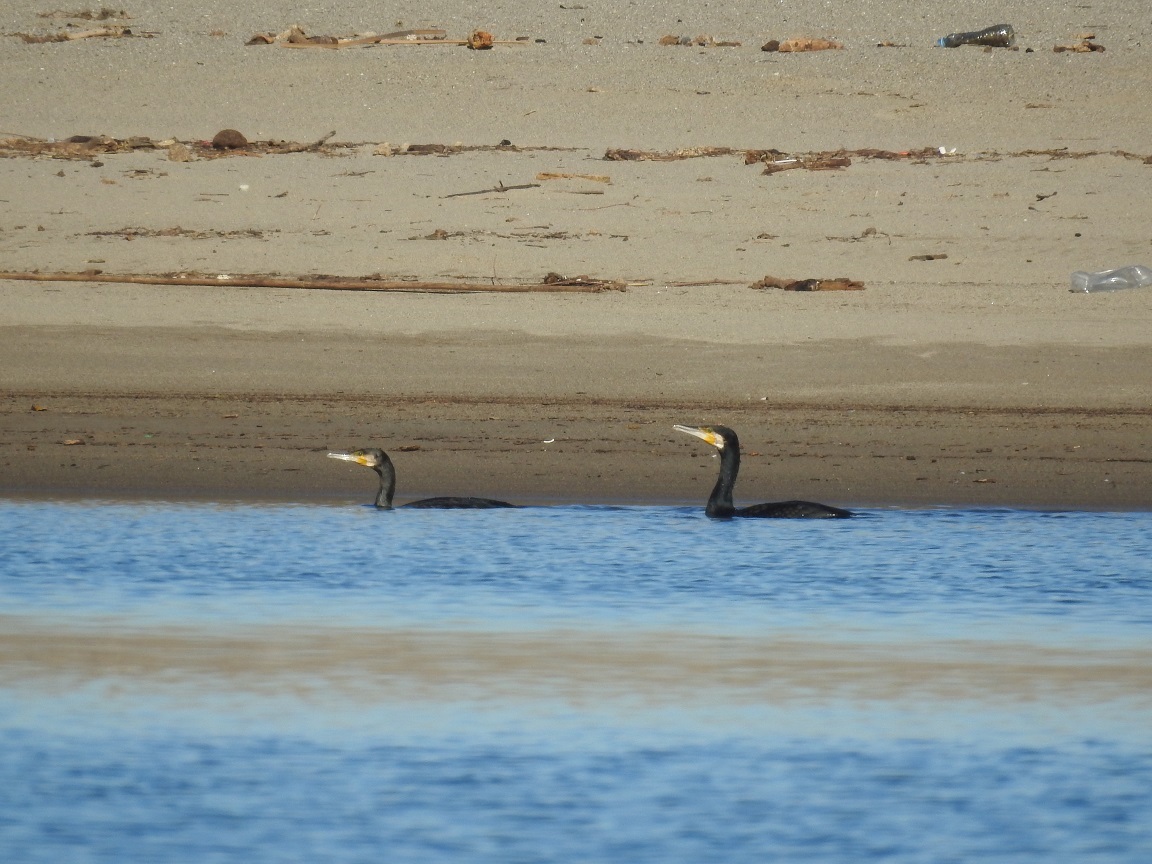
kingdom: Animalia
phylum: Chordata
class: Aves
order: Suliformes
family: Phalacrocoracidae
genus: Phalacrocorax
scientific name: Phalacrocorax carbo
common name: Great cormorant
